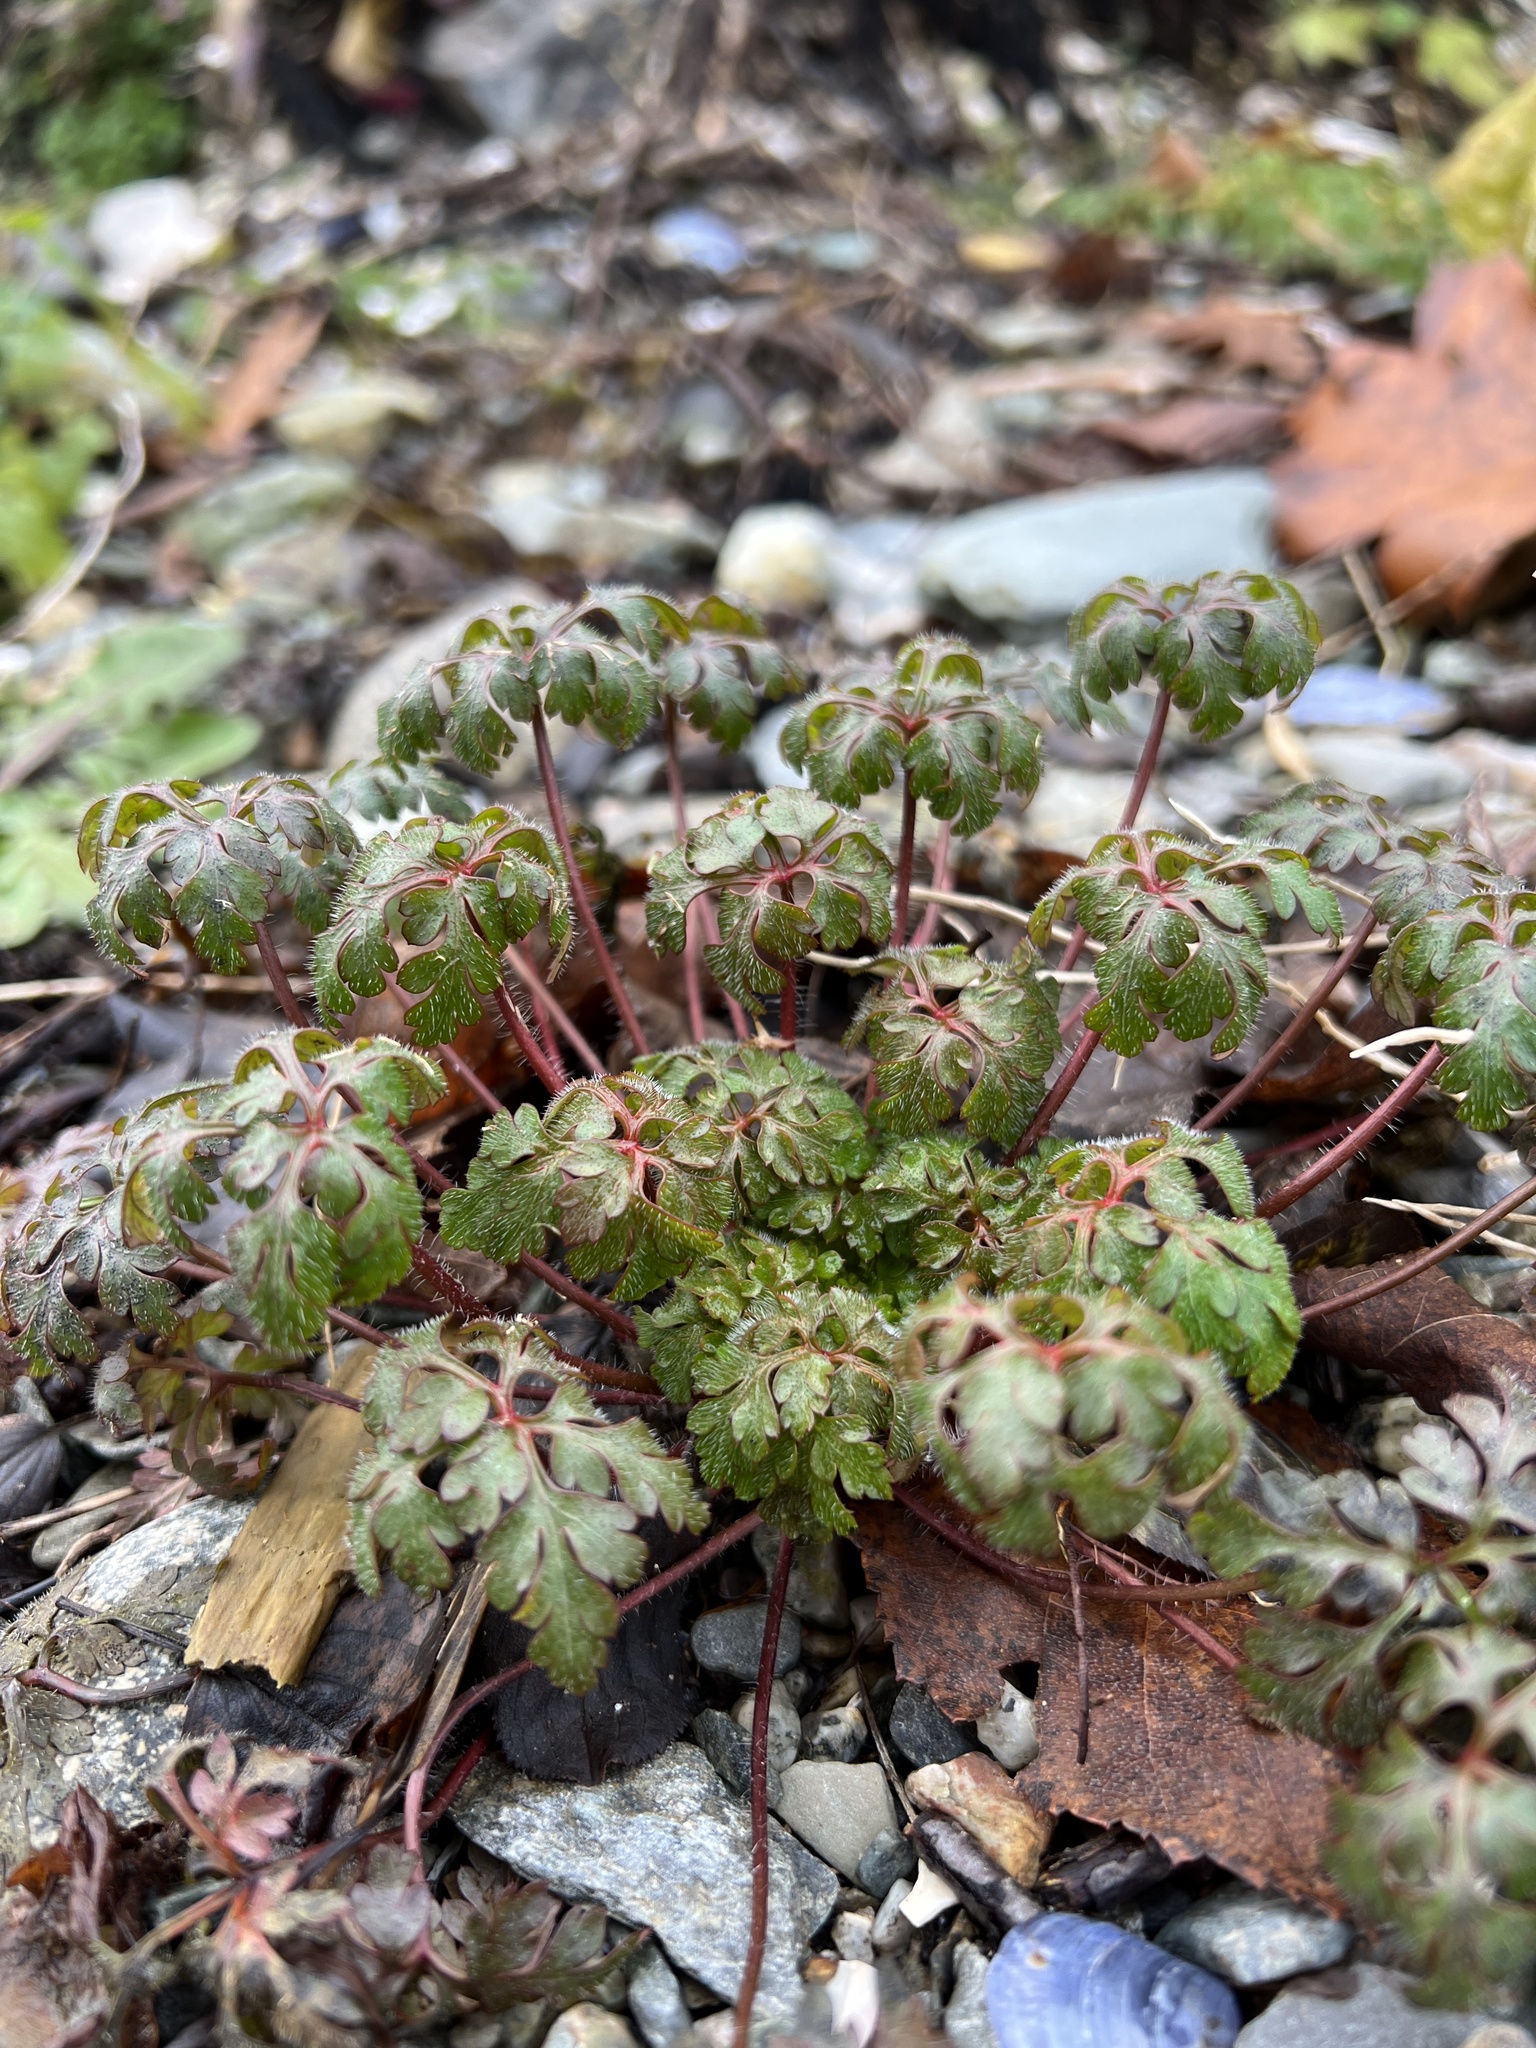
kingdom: Plantae
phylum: Tracheophyta
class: Magnoliopsida
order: Geraniales
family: Geraniaceae
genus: Geranium
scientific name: Geranium robertianum
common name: Herb-robert
